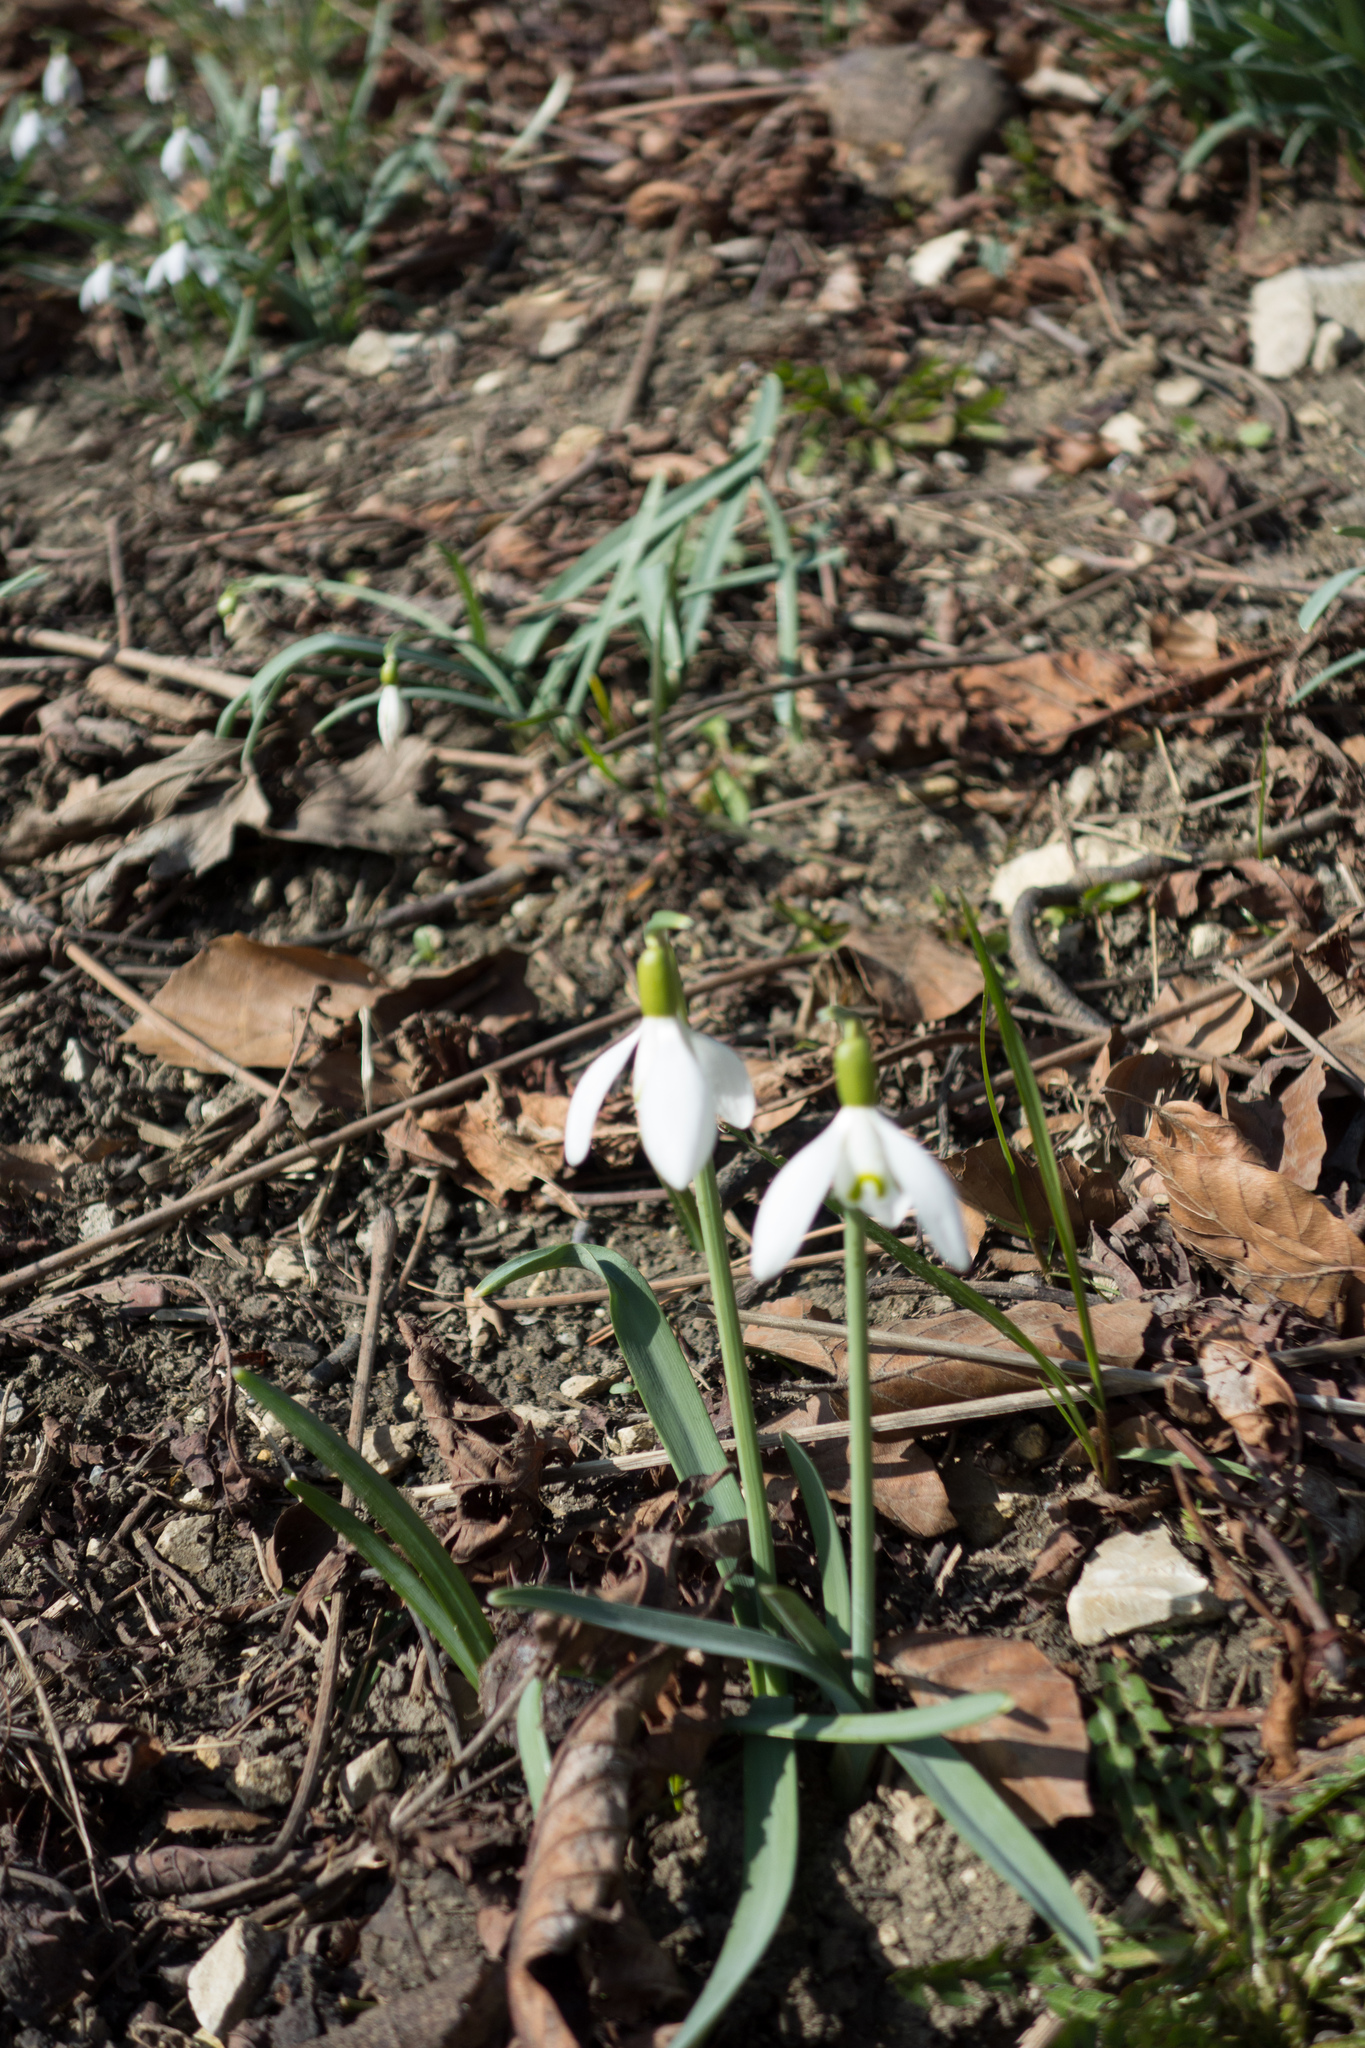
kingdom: Plantae
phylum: Tracheophyta
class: Liliopsida
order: Asparagales
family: Amaryllidaceae
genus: Galanthus
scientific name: Galanthus nivalis
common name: Snowdrop
